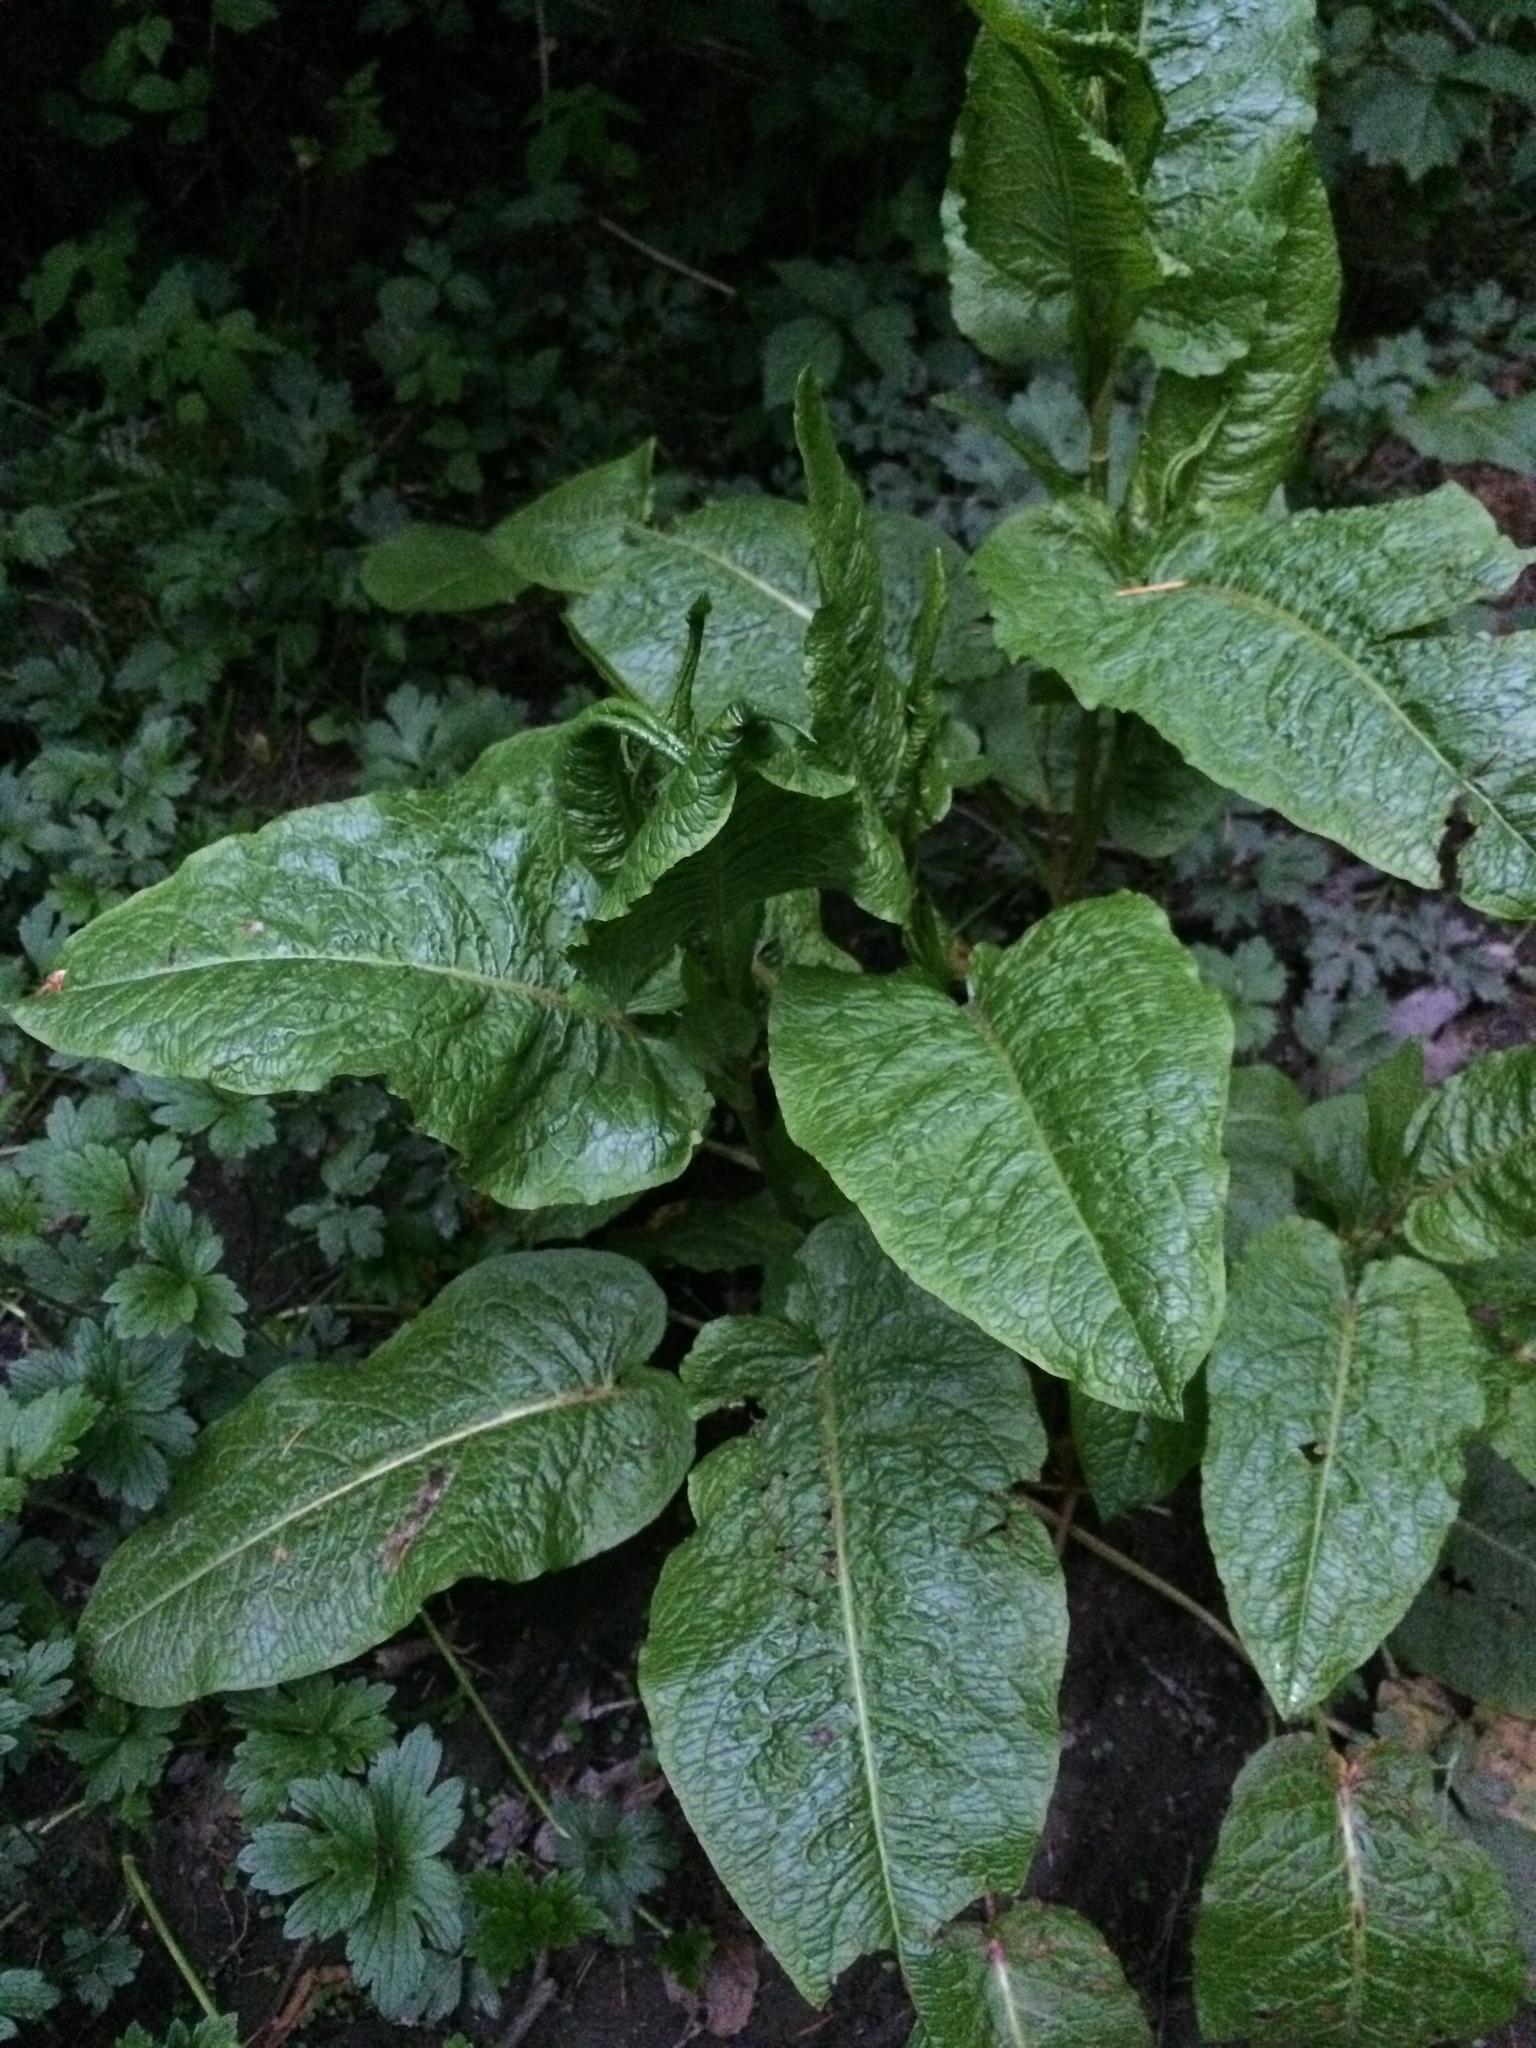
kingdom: Plantae
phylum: Tracheophyta
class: Magnoliopsida
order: Caryophyllales
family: Polygonaceae
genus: Rumex
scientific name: Rumex obtusifolius
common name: Bitter dock
